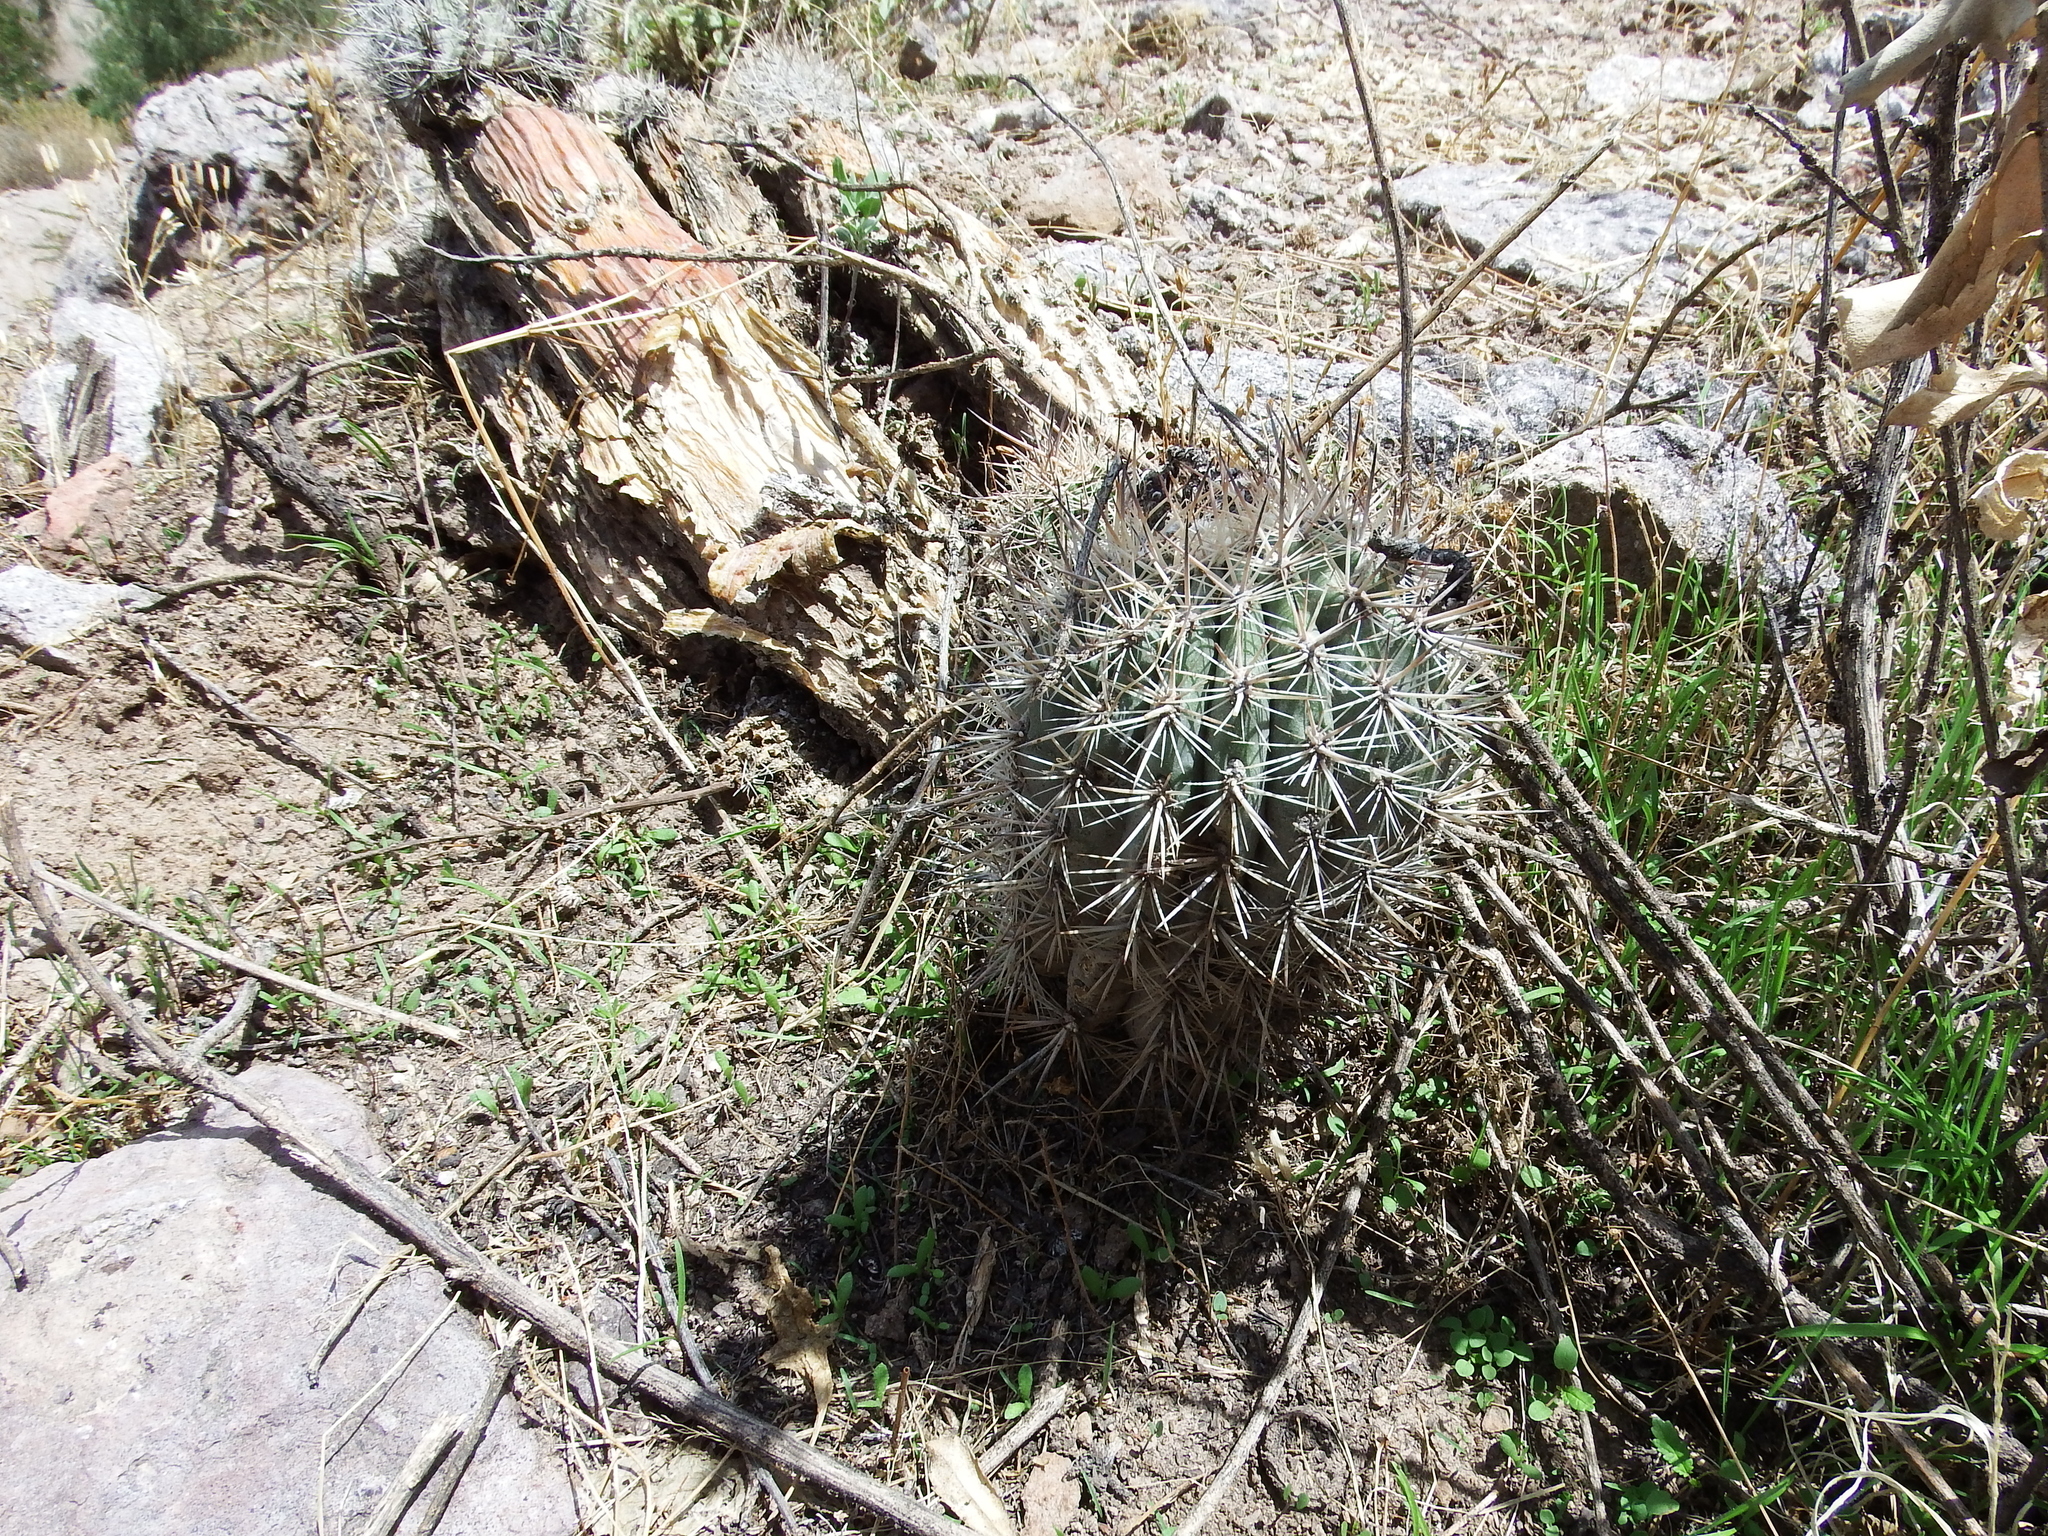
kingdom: Plantae
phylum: Tracheophyta
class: Magnoliopsida
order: Caryophyllales
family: Cactaceae
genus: Oreocereus
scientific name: Oreocereus hempelianus
